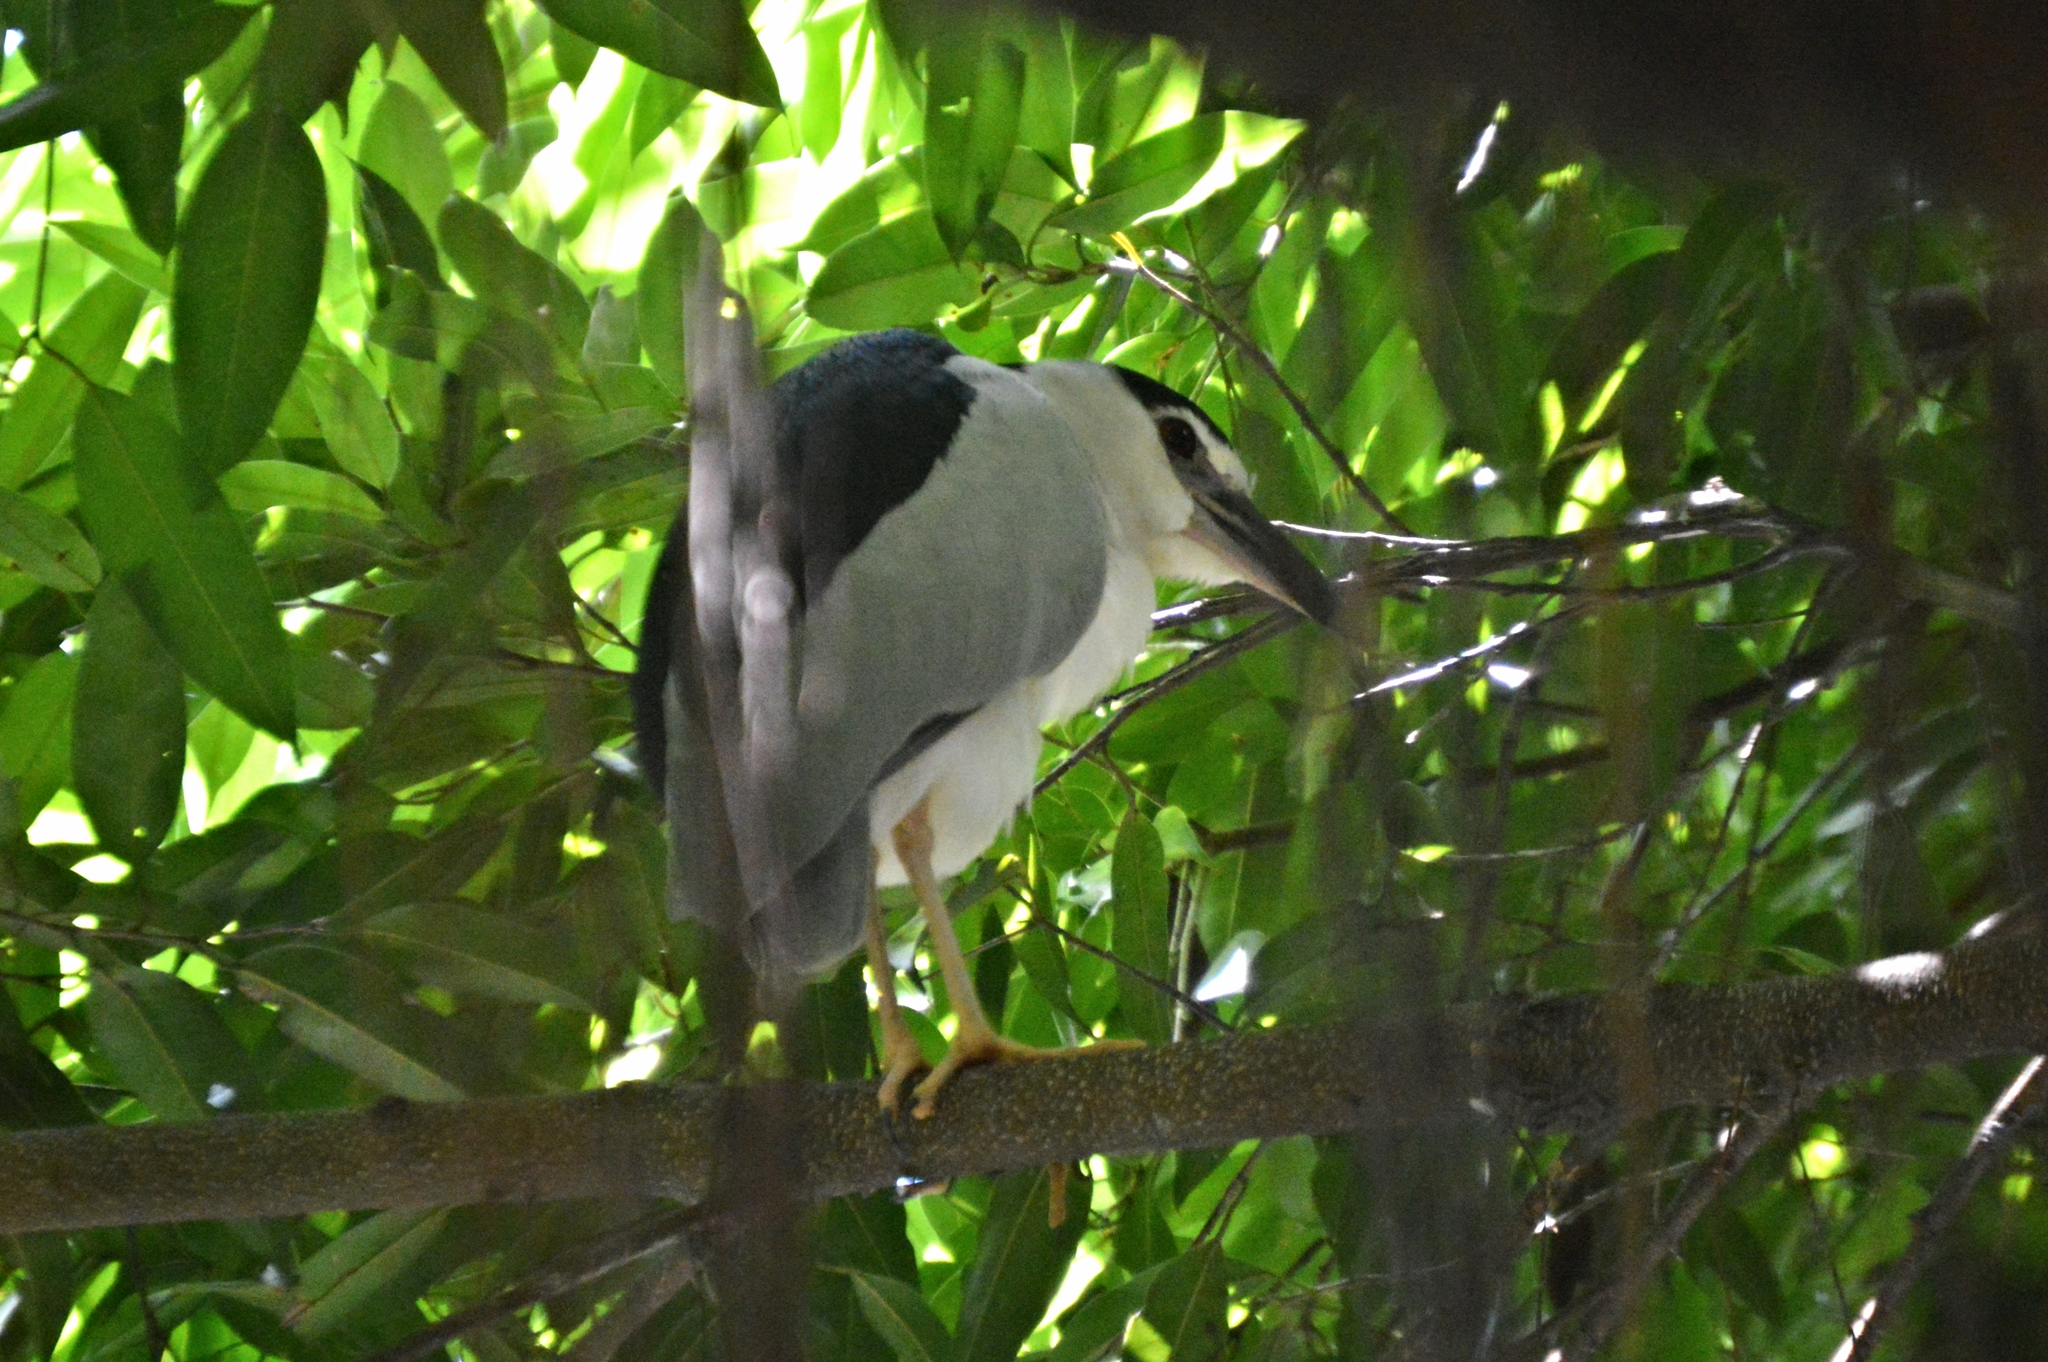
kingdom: Animalia
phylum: Chordata
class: Aves
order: Pelecaniformes
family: Ardeidae
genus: Nycticorax
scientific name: Nycticorax nycticorax
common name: Black-crowned night heron
